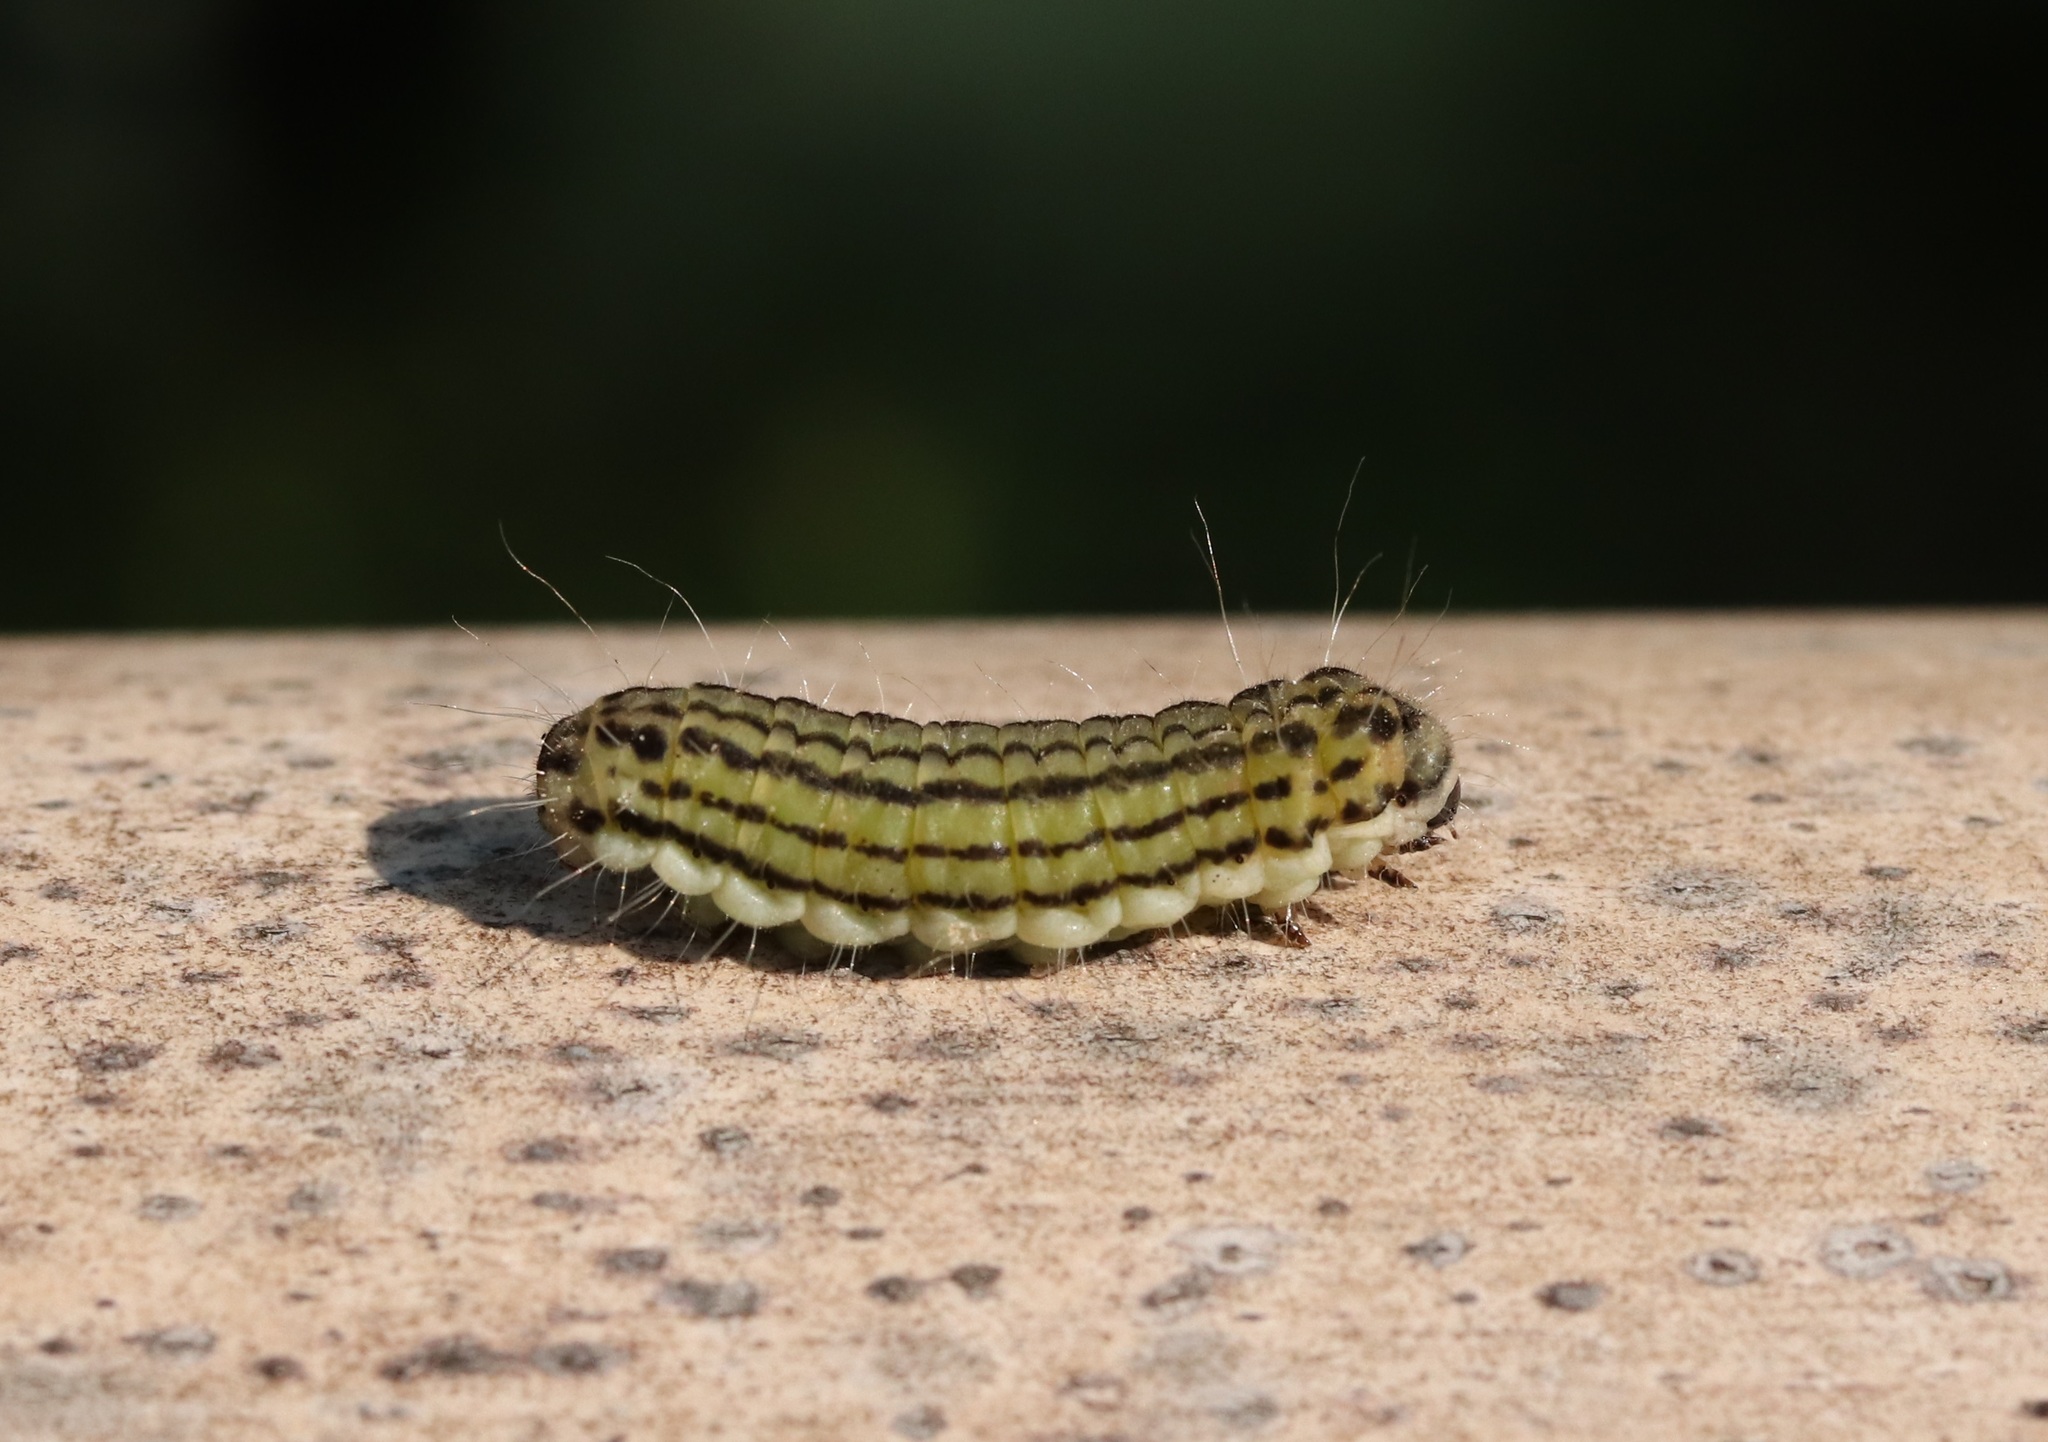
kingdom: Animalia
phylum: Arthropoda
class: Insecta
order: Lepidoptera
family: Zygaenidae
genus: Sinica
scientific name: Sinica sinica
